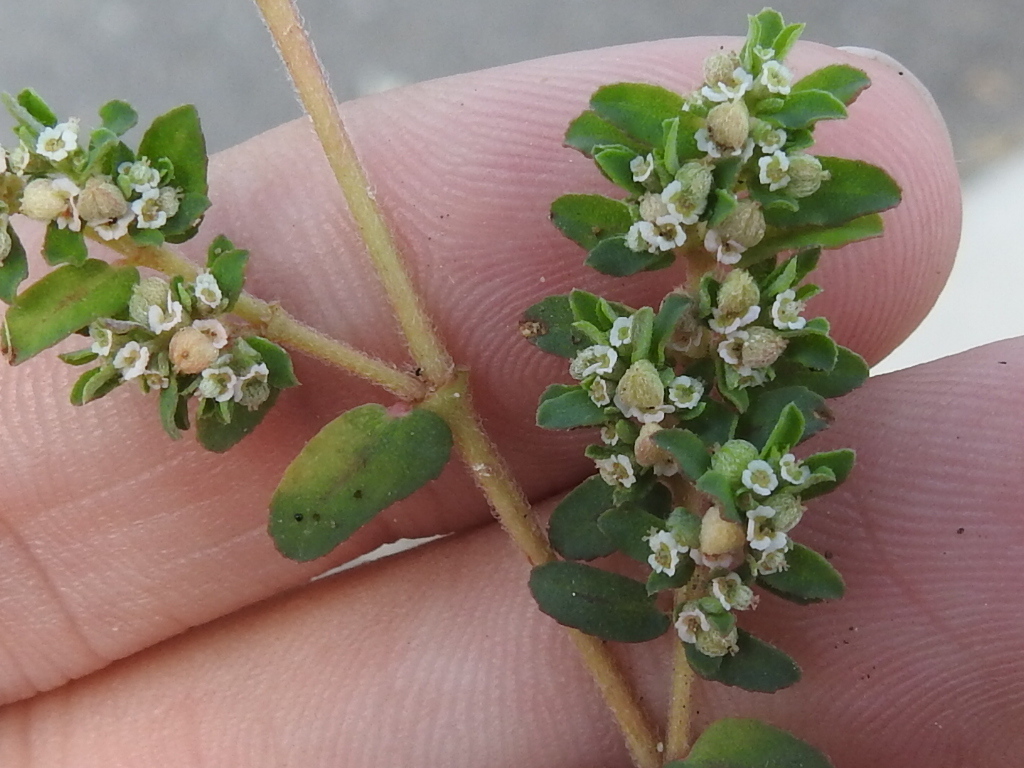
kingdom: Plantae
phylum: Tracheophyta
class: Magnoliopsida
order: Malpighiales
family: Euphorbiaceae
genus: Euphorbia
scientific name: Euphorbia maculata
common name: Spotted spurge
